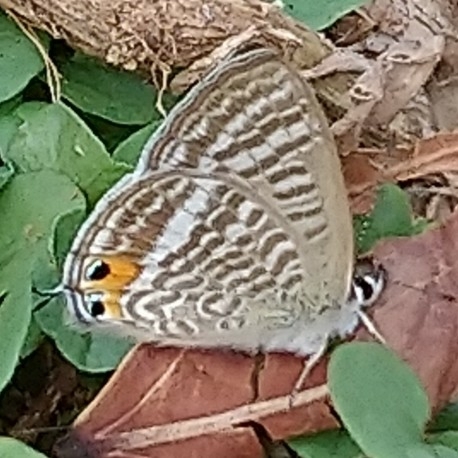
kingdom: Animalia
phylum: Arthropoda
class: Insecta
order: Lepidoptera
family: Lycaenidae
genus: Lampides
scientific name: Lampides boeticus
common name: Long-tailed blue
